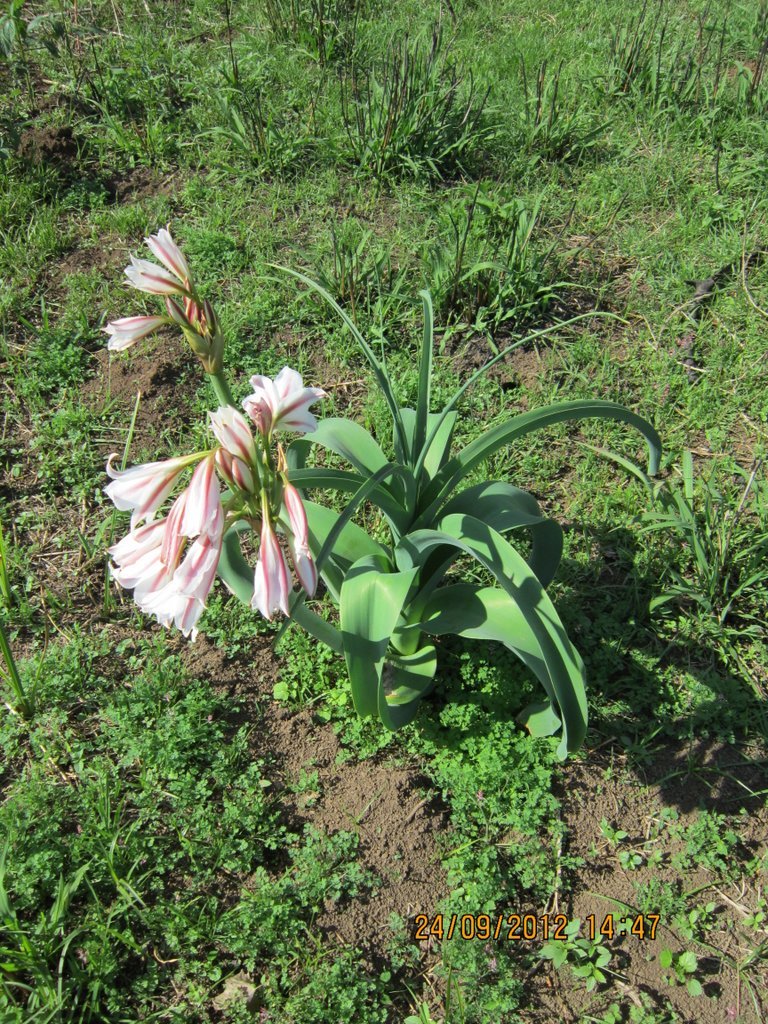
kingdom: Plantae
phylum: Tracheophyta
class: Liliopsida
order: Asparagales
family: Amaryllidaceae
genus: Crinum
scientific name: Crinum bulbispermum
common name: Hardy swamplily
